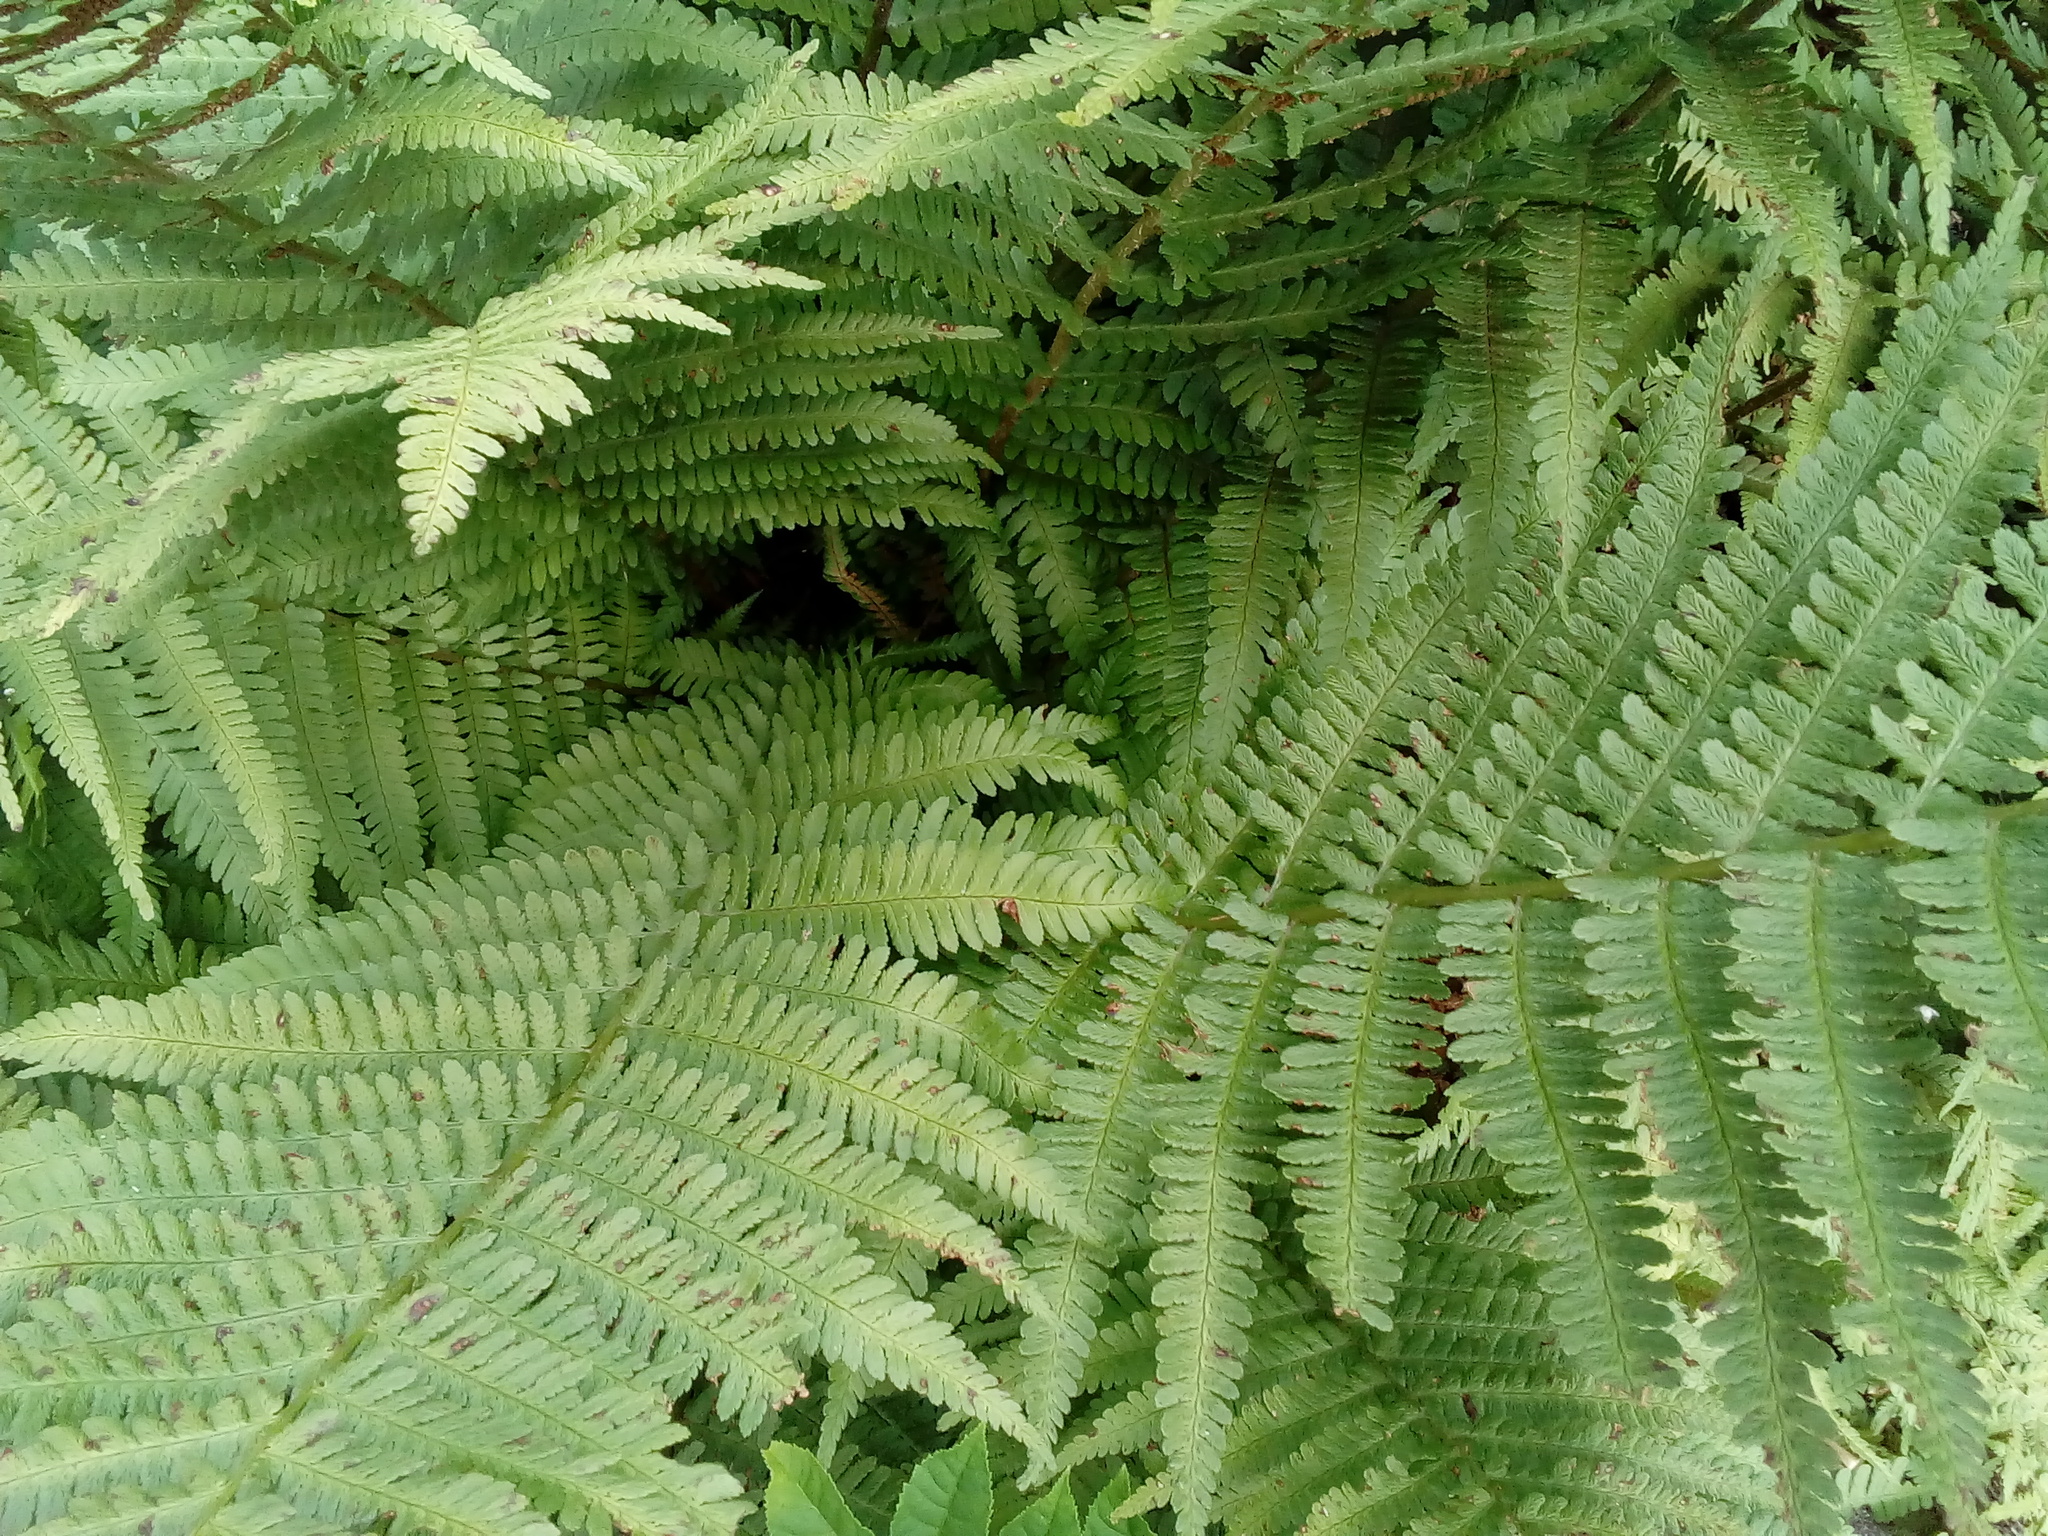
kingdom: Plantae
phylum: Tracheophyta
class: Polypodiopsida
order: Polypodiales
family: Dryopteridaceae
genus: Dryopteris
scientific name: Dryopteris filix-mas
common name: Male fern
